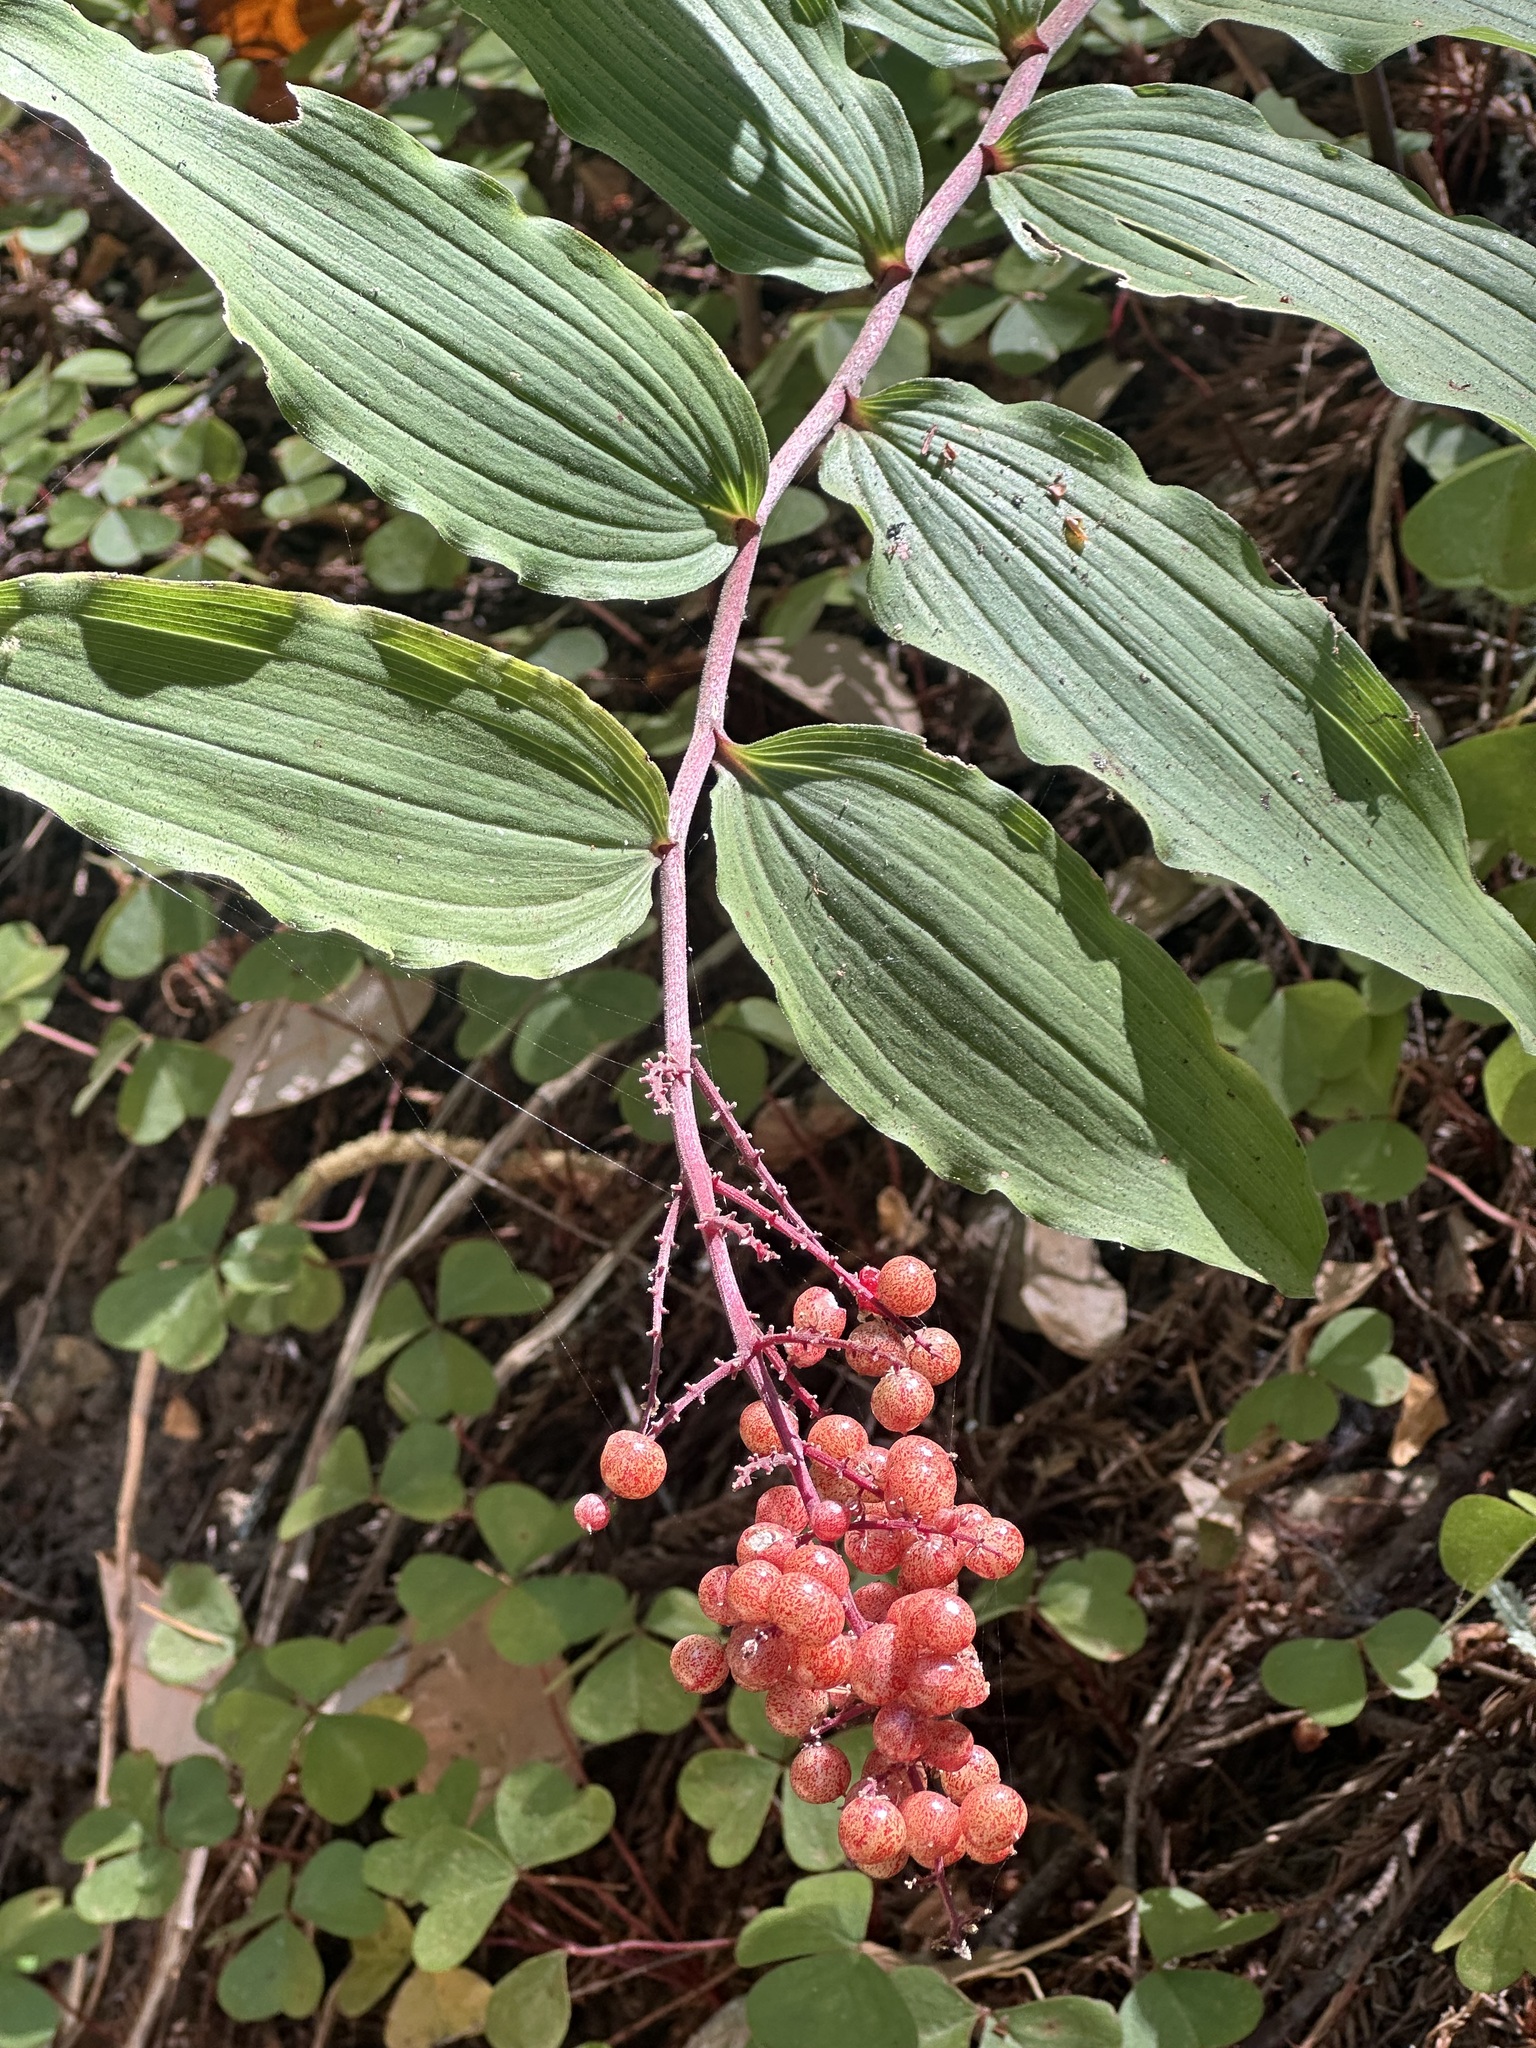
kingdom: Plantae
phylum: Tracheophyta
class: Liliopsida
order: Asparagales
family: Asparagaceae
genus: Maianthemum
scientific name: Maianthemum racemosum
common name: False spikenard
